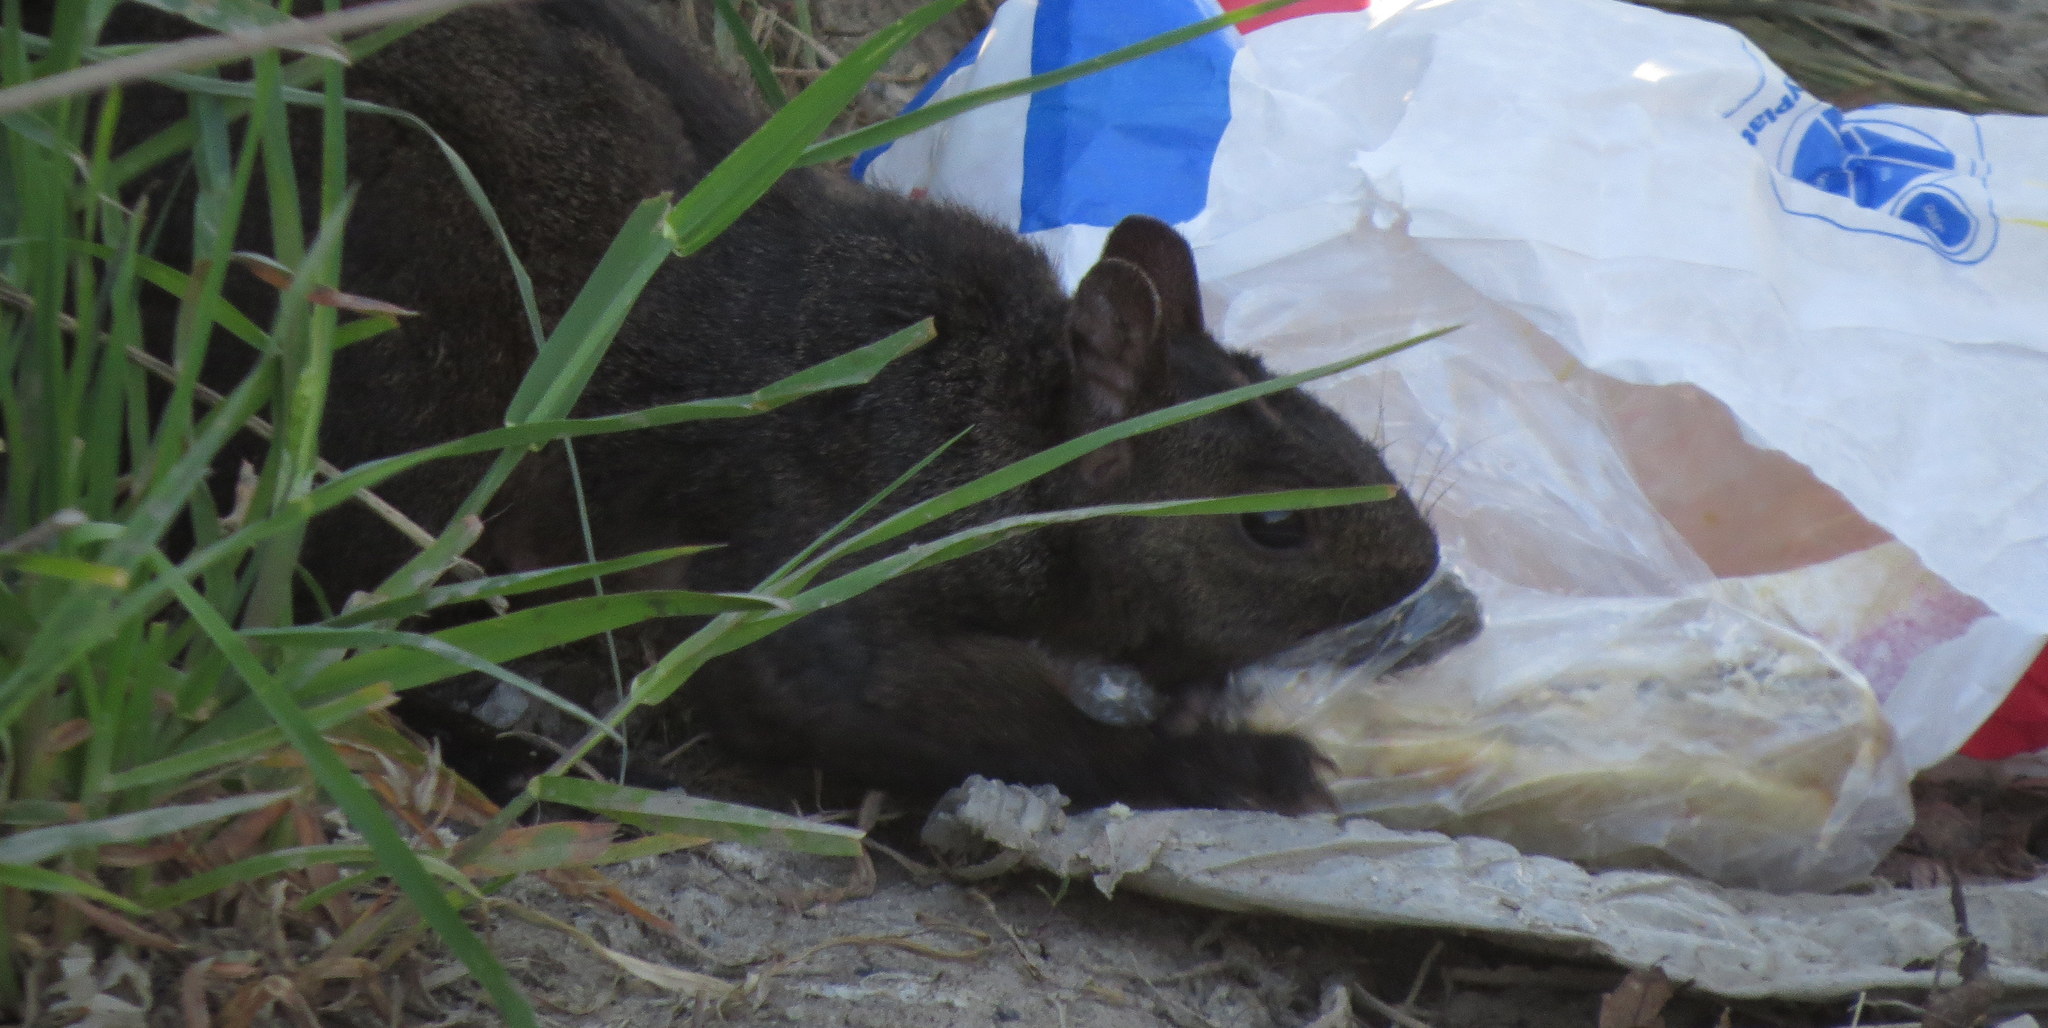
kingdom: Animalia
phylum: Chordata
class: Mammalia
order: Rodentia
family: Sciuridae
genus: Sciurus
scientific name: Sciurus carolinensis
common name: Eastern gray squirrel
